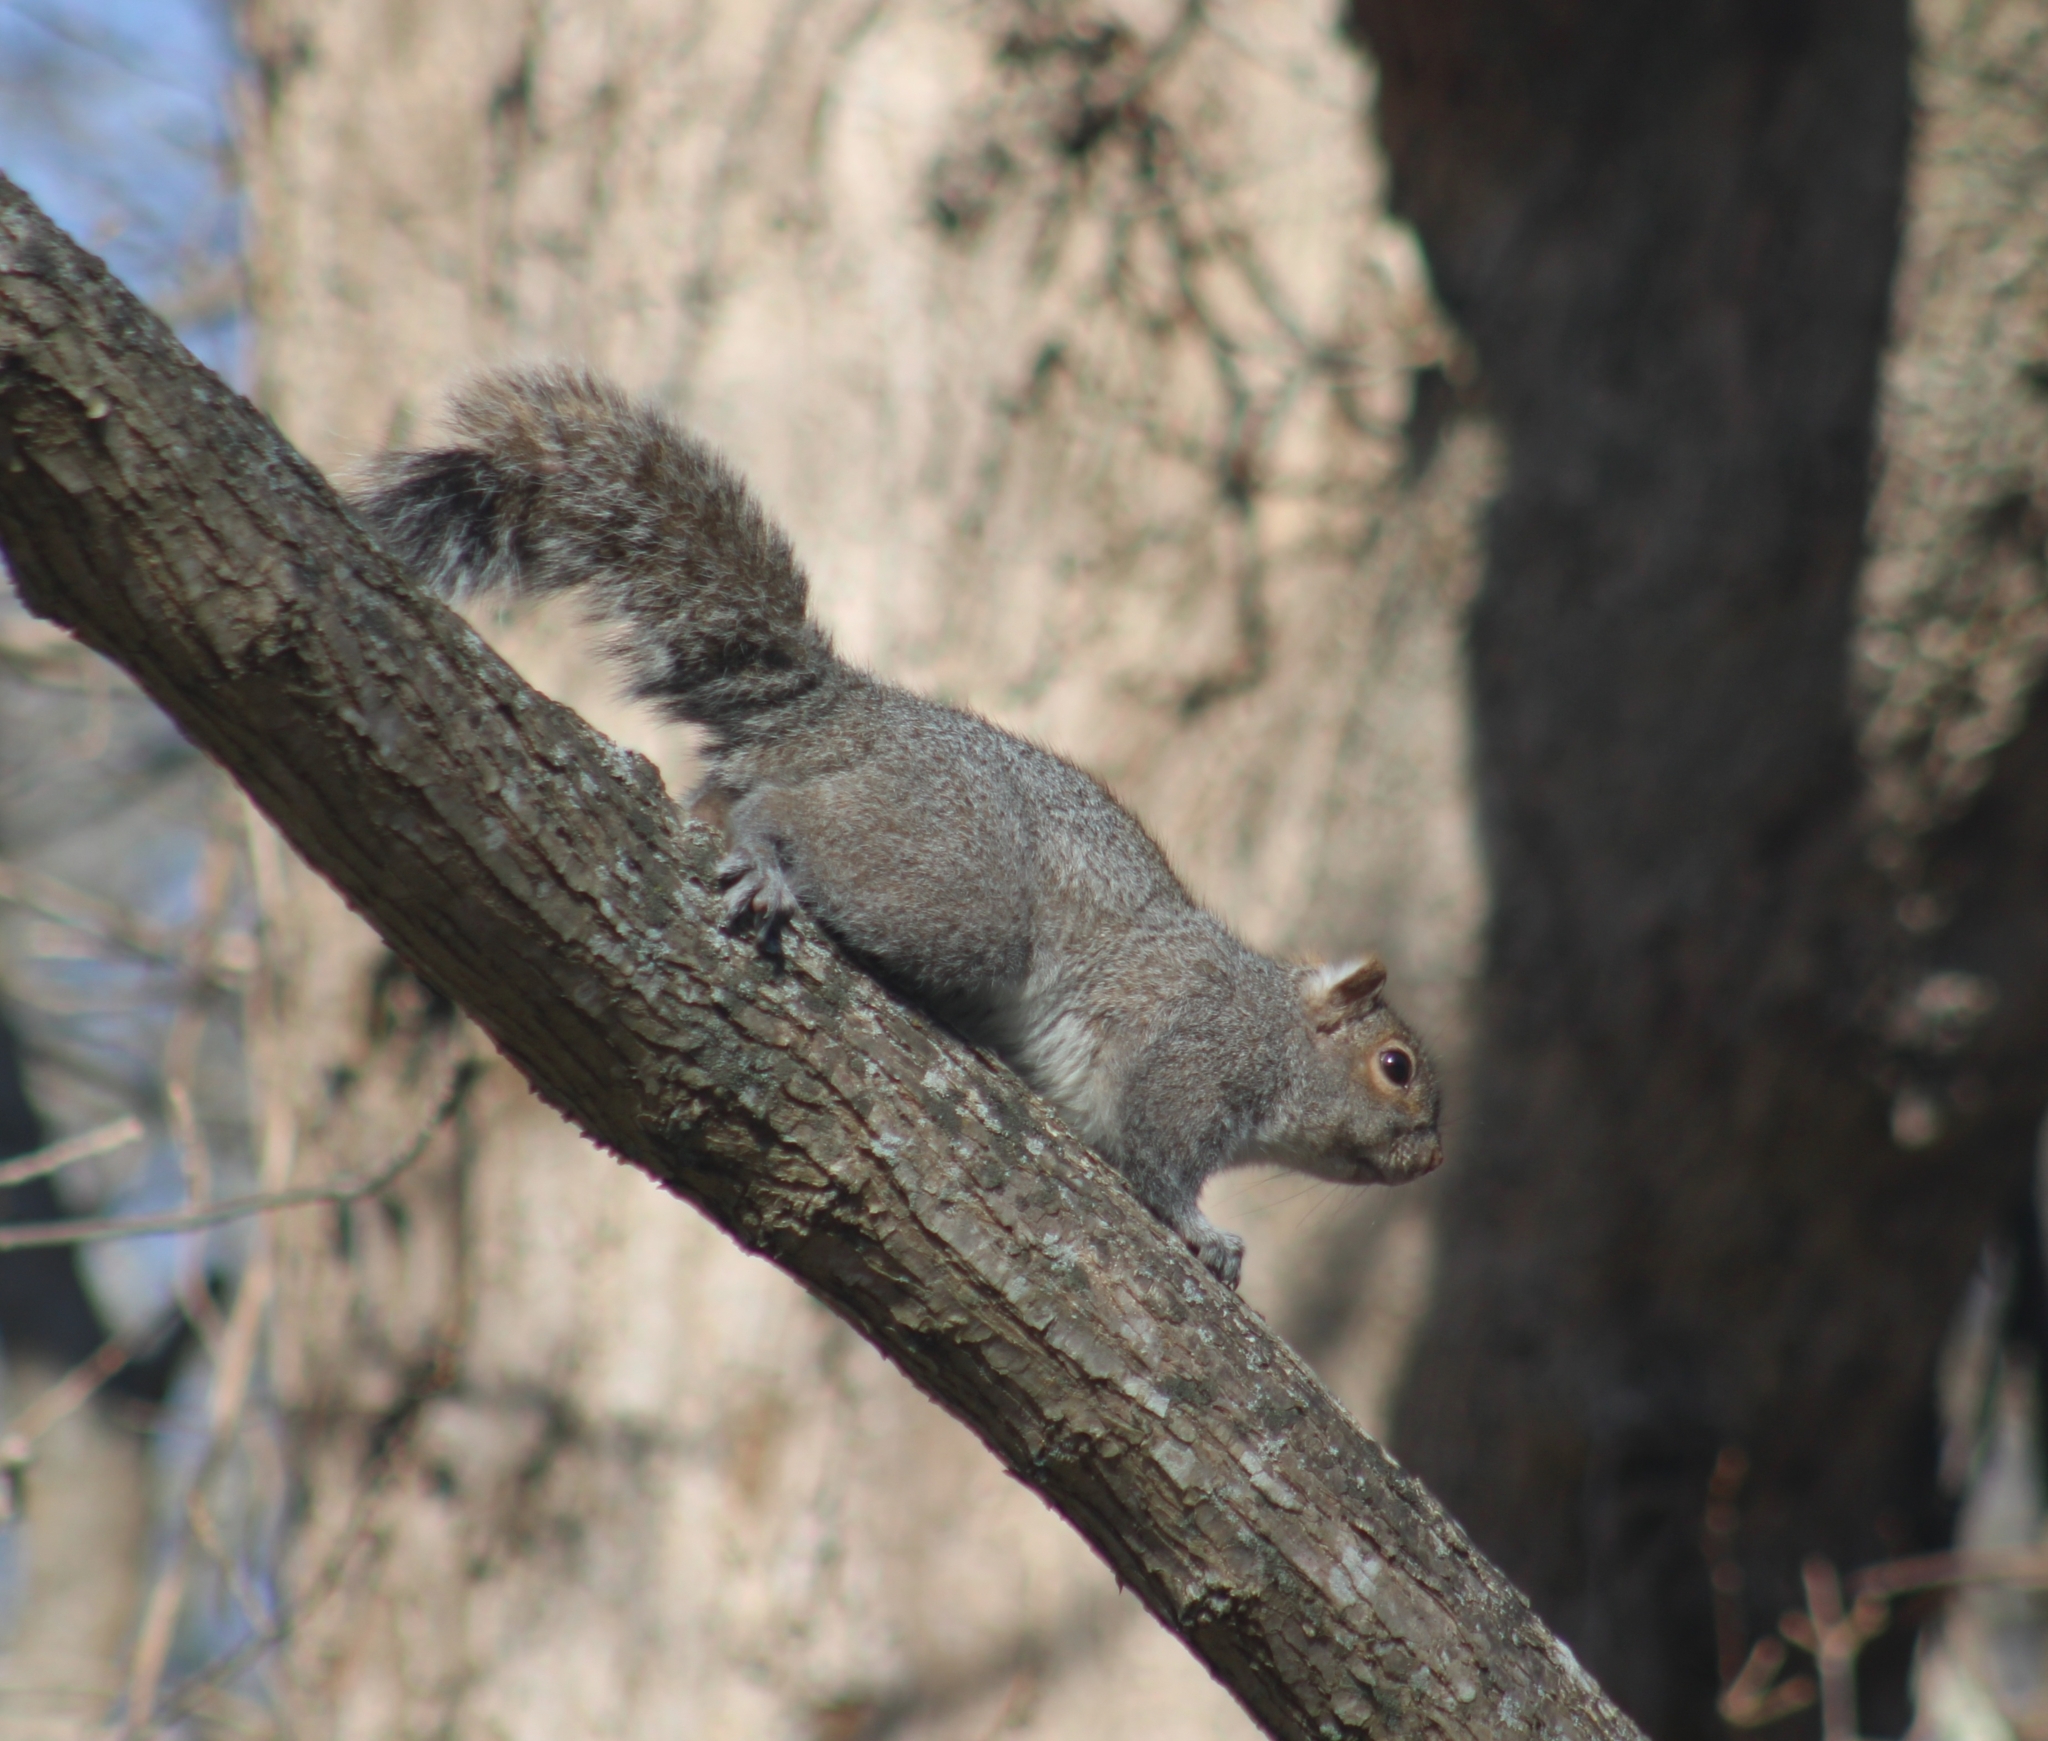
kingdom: Animalia
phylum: Chordata
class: Mammalia
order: Rodentia
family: Sciuridae
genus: Sciurus
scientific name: Sciurus carolinensis
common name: Eastern gray squirrel
